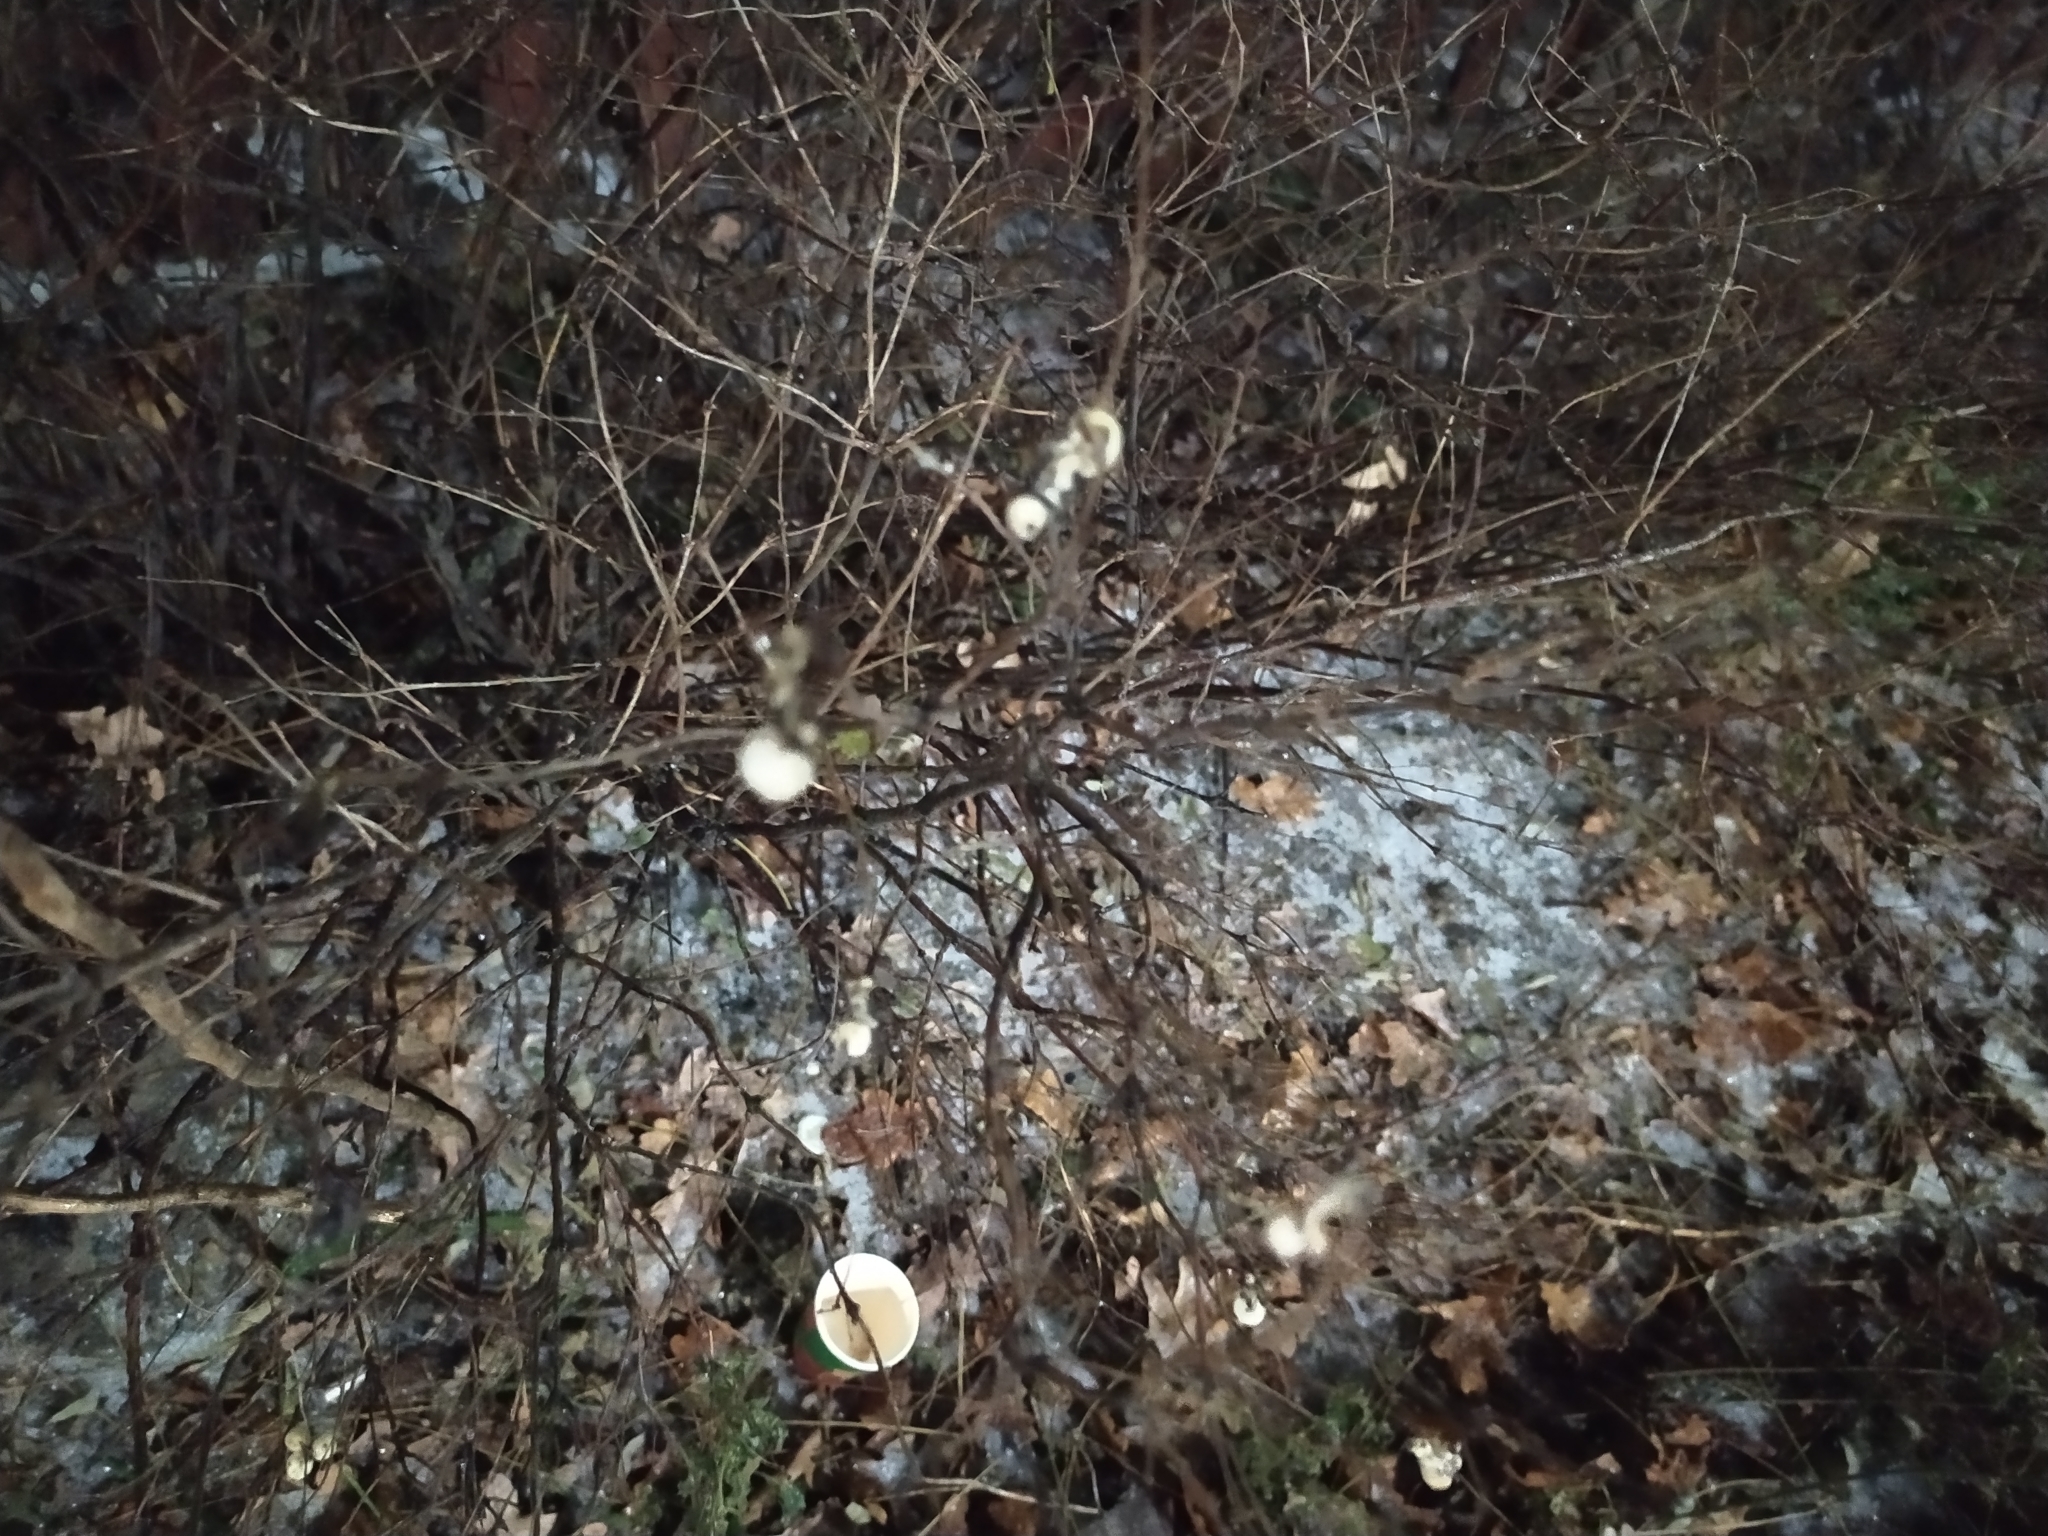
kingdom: Plantae
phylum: Tracheophyta
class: Magnoliopsida
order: Dipsacales
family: Caprifoliaceae
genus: Symphoricarpos
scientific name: Symphoricarpos albus
